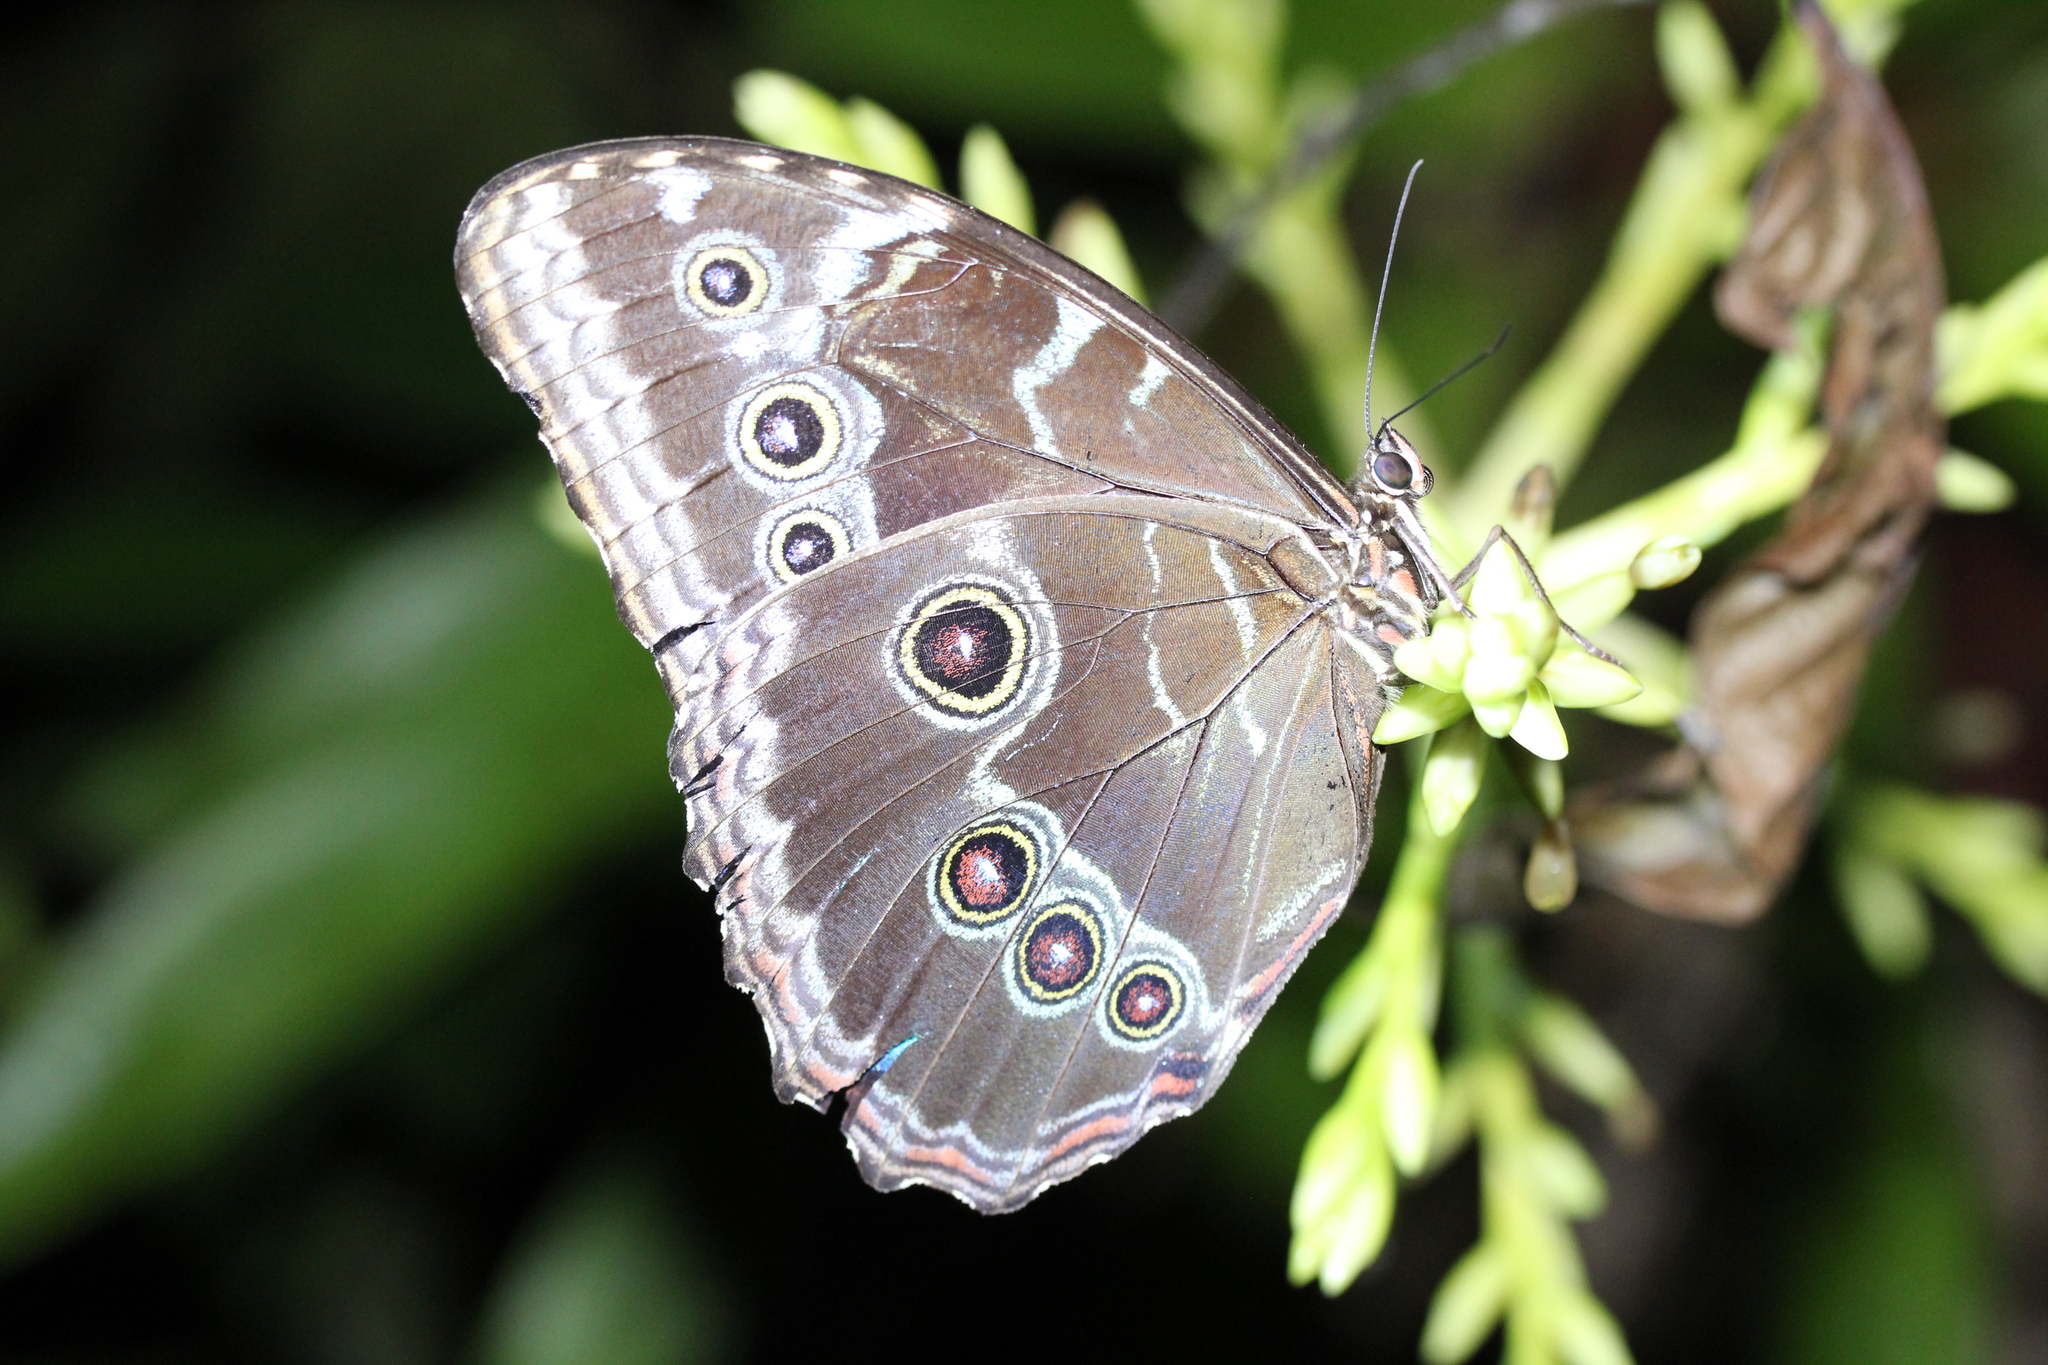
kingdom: Animalia
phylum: Arthropoda
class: Insecta
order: Lepidoptera
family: Nymphalidae
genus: Morpho
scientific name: Morpho helenor
